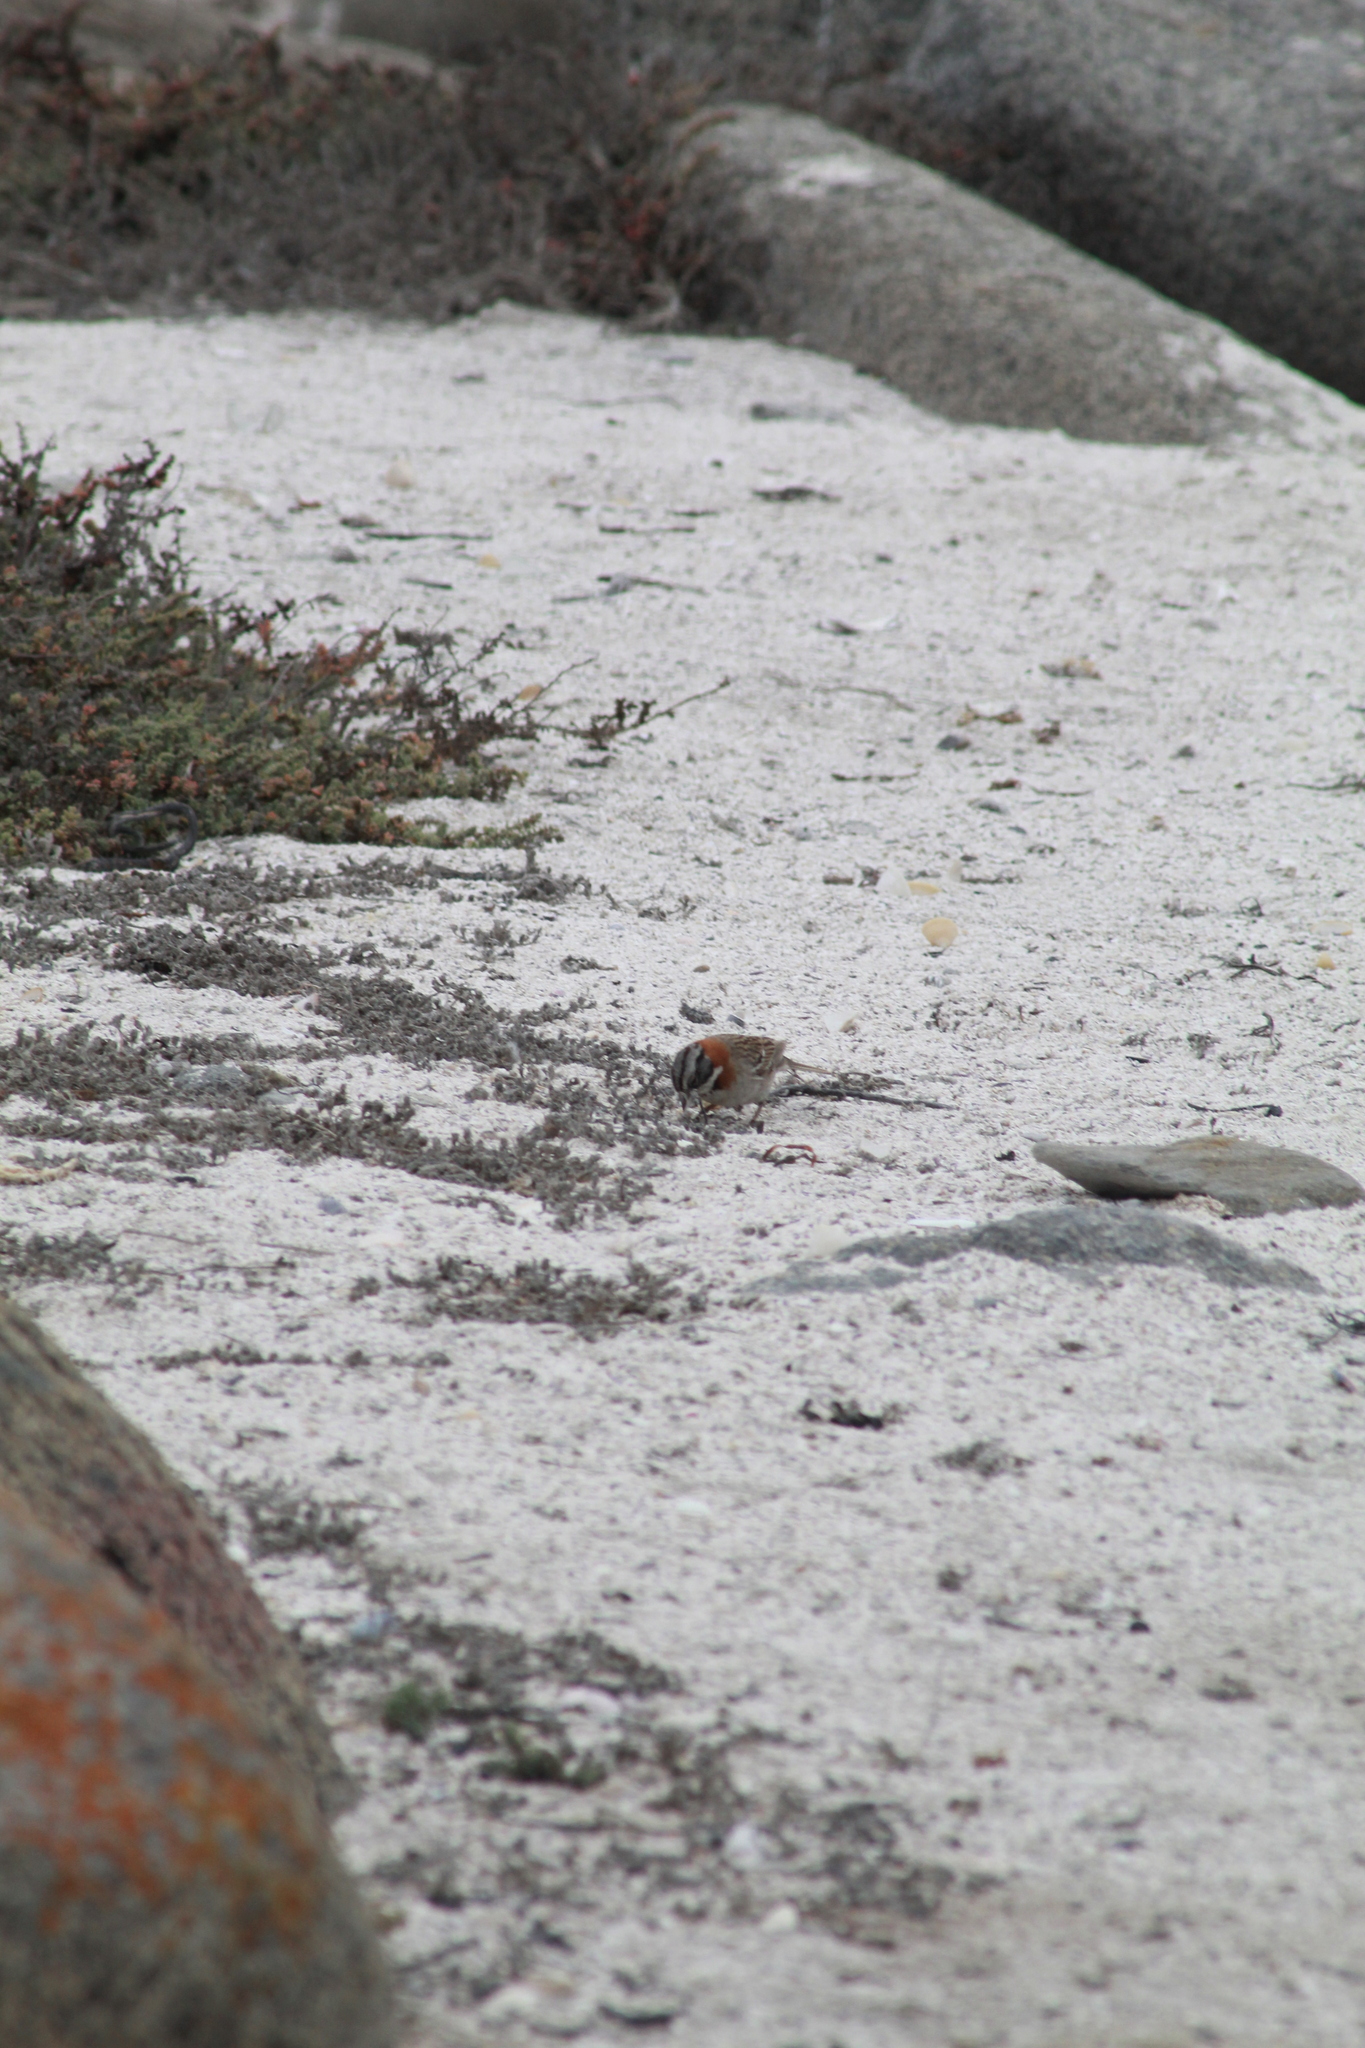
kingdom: Animalia
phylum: Chordata
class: Aves
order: Passeriformes
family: Passerellidae
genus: Zonotrichia
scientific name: Zonotrichia capensis
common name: Rufous-collared sparrow
